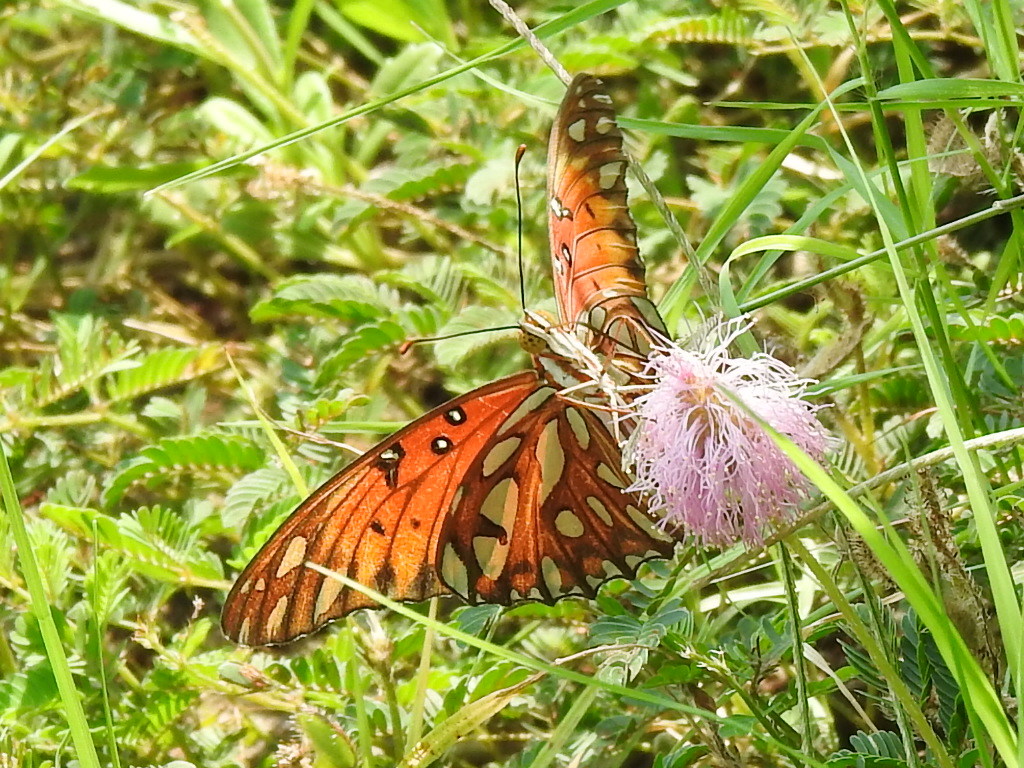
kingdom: Animalia
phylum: Arthropoda
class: Insecta
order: Lepidoptera
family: Nymphalidae
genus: Dione
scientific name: Dione vanillae
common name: Gulf fritillary
